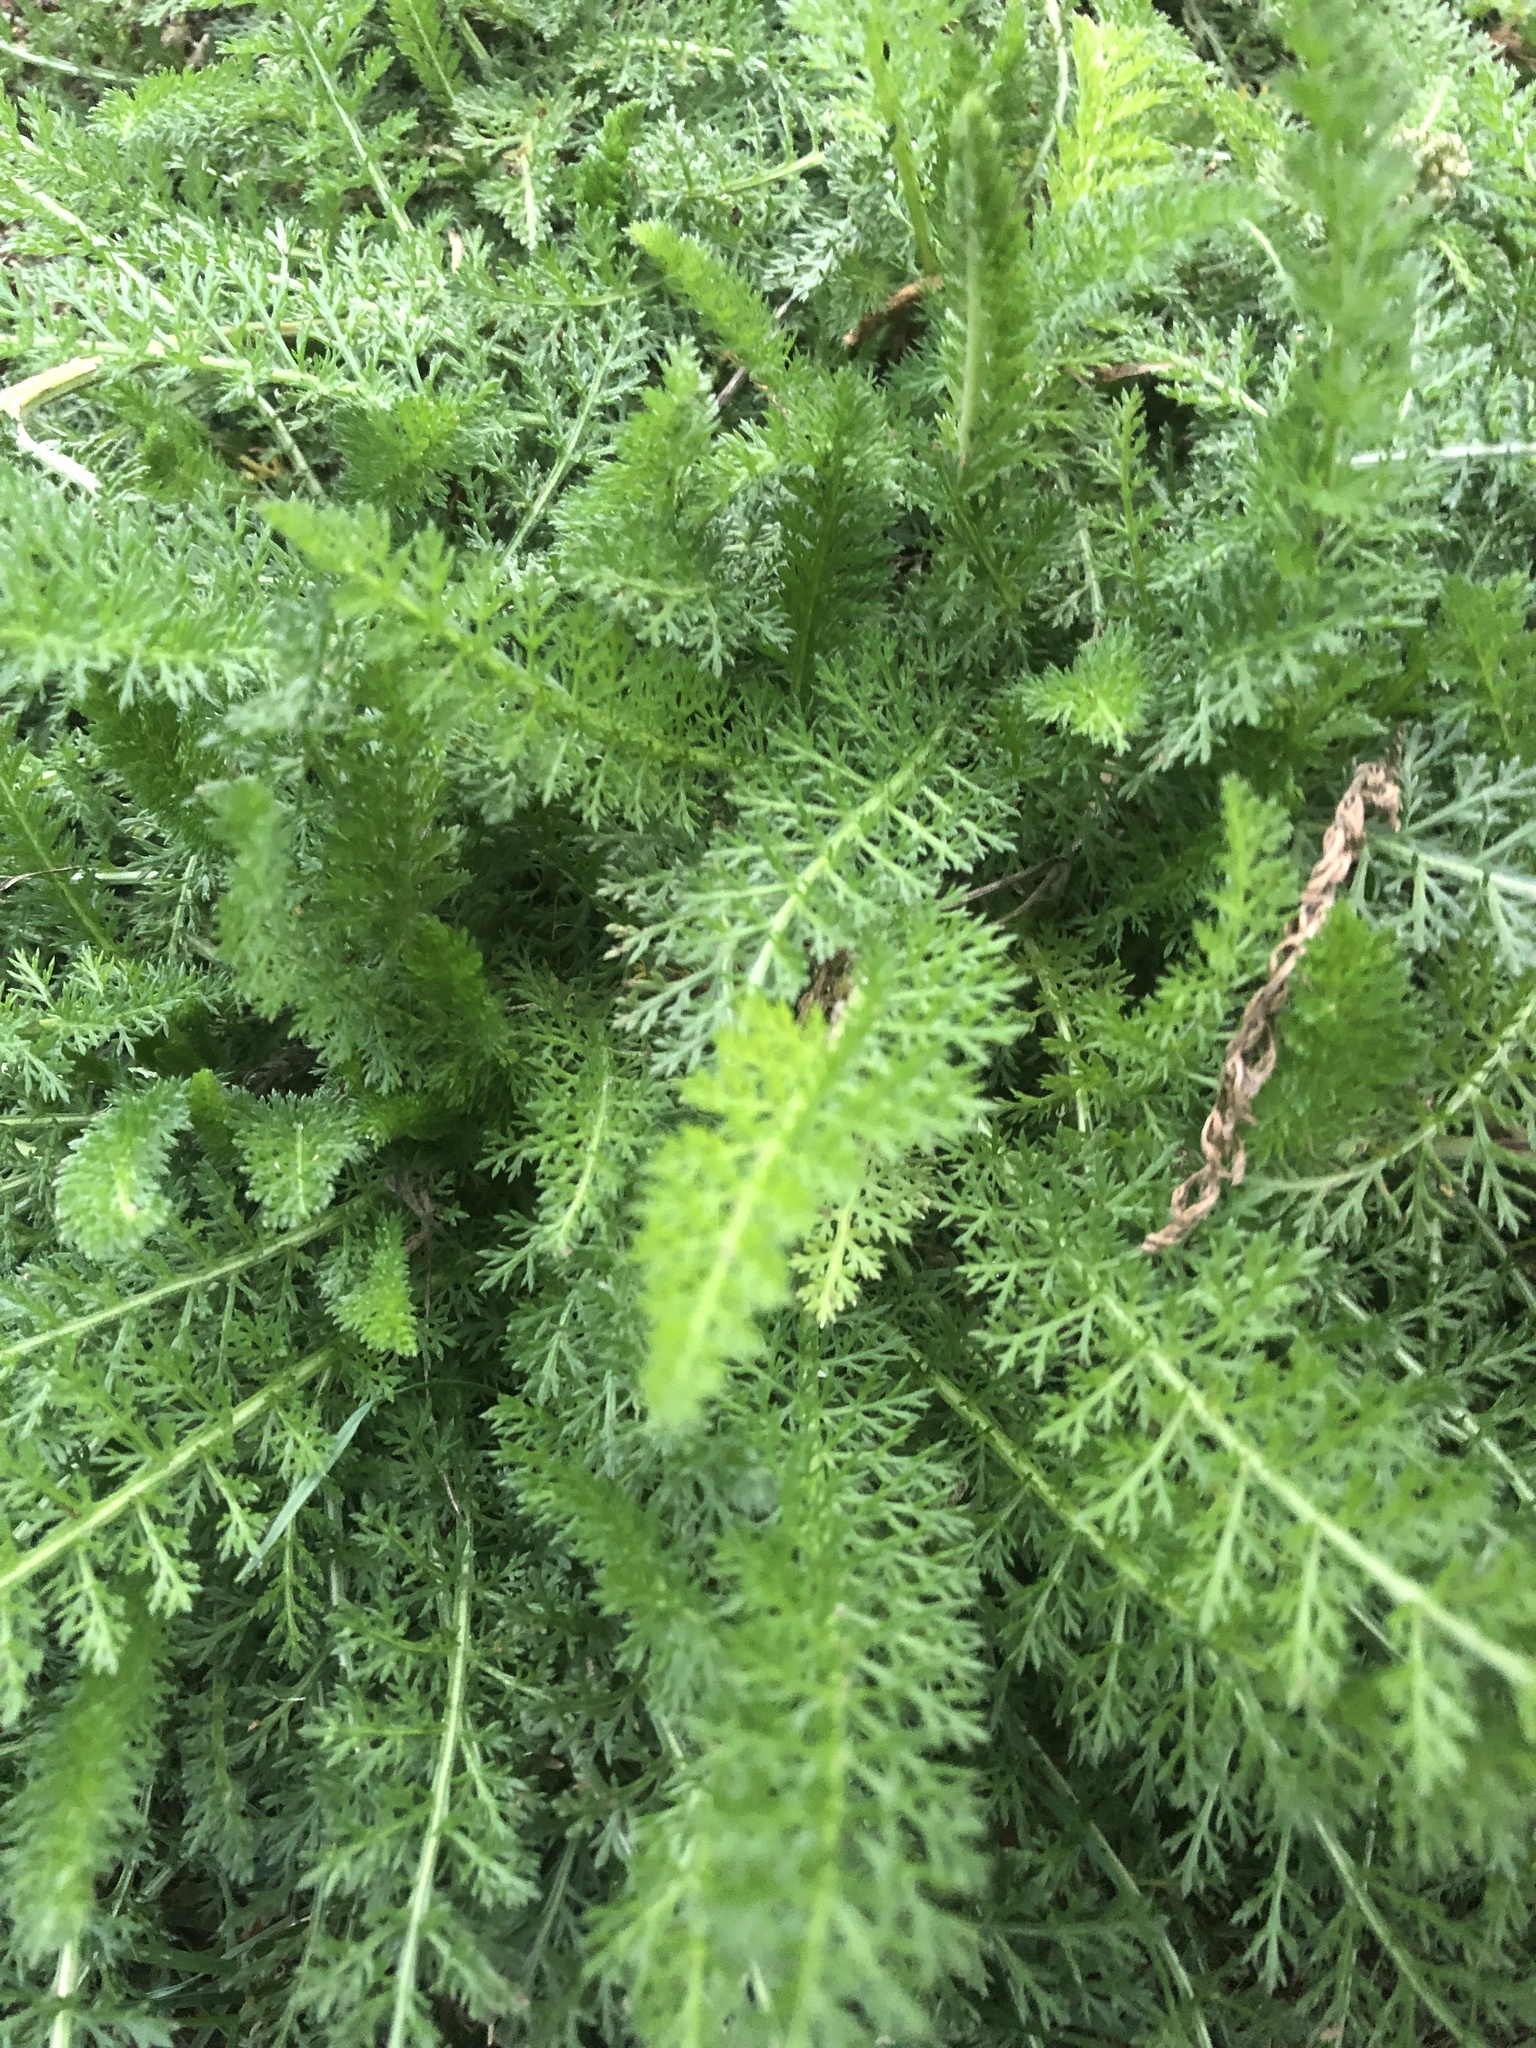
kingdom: Plantae
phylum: Tracheophyta
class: Magnoliopsida
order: Asterales
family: Asteraceae
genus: Achillea
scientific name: Achillea millefolium
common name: Yarrow
